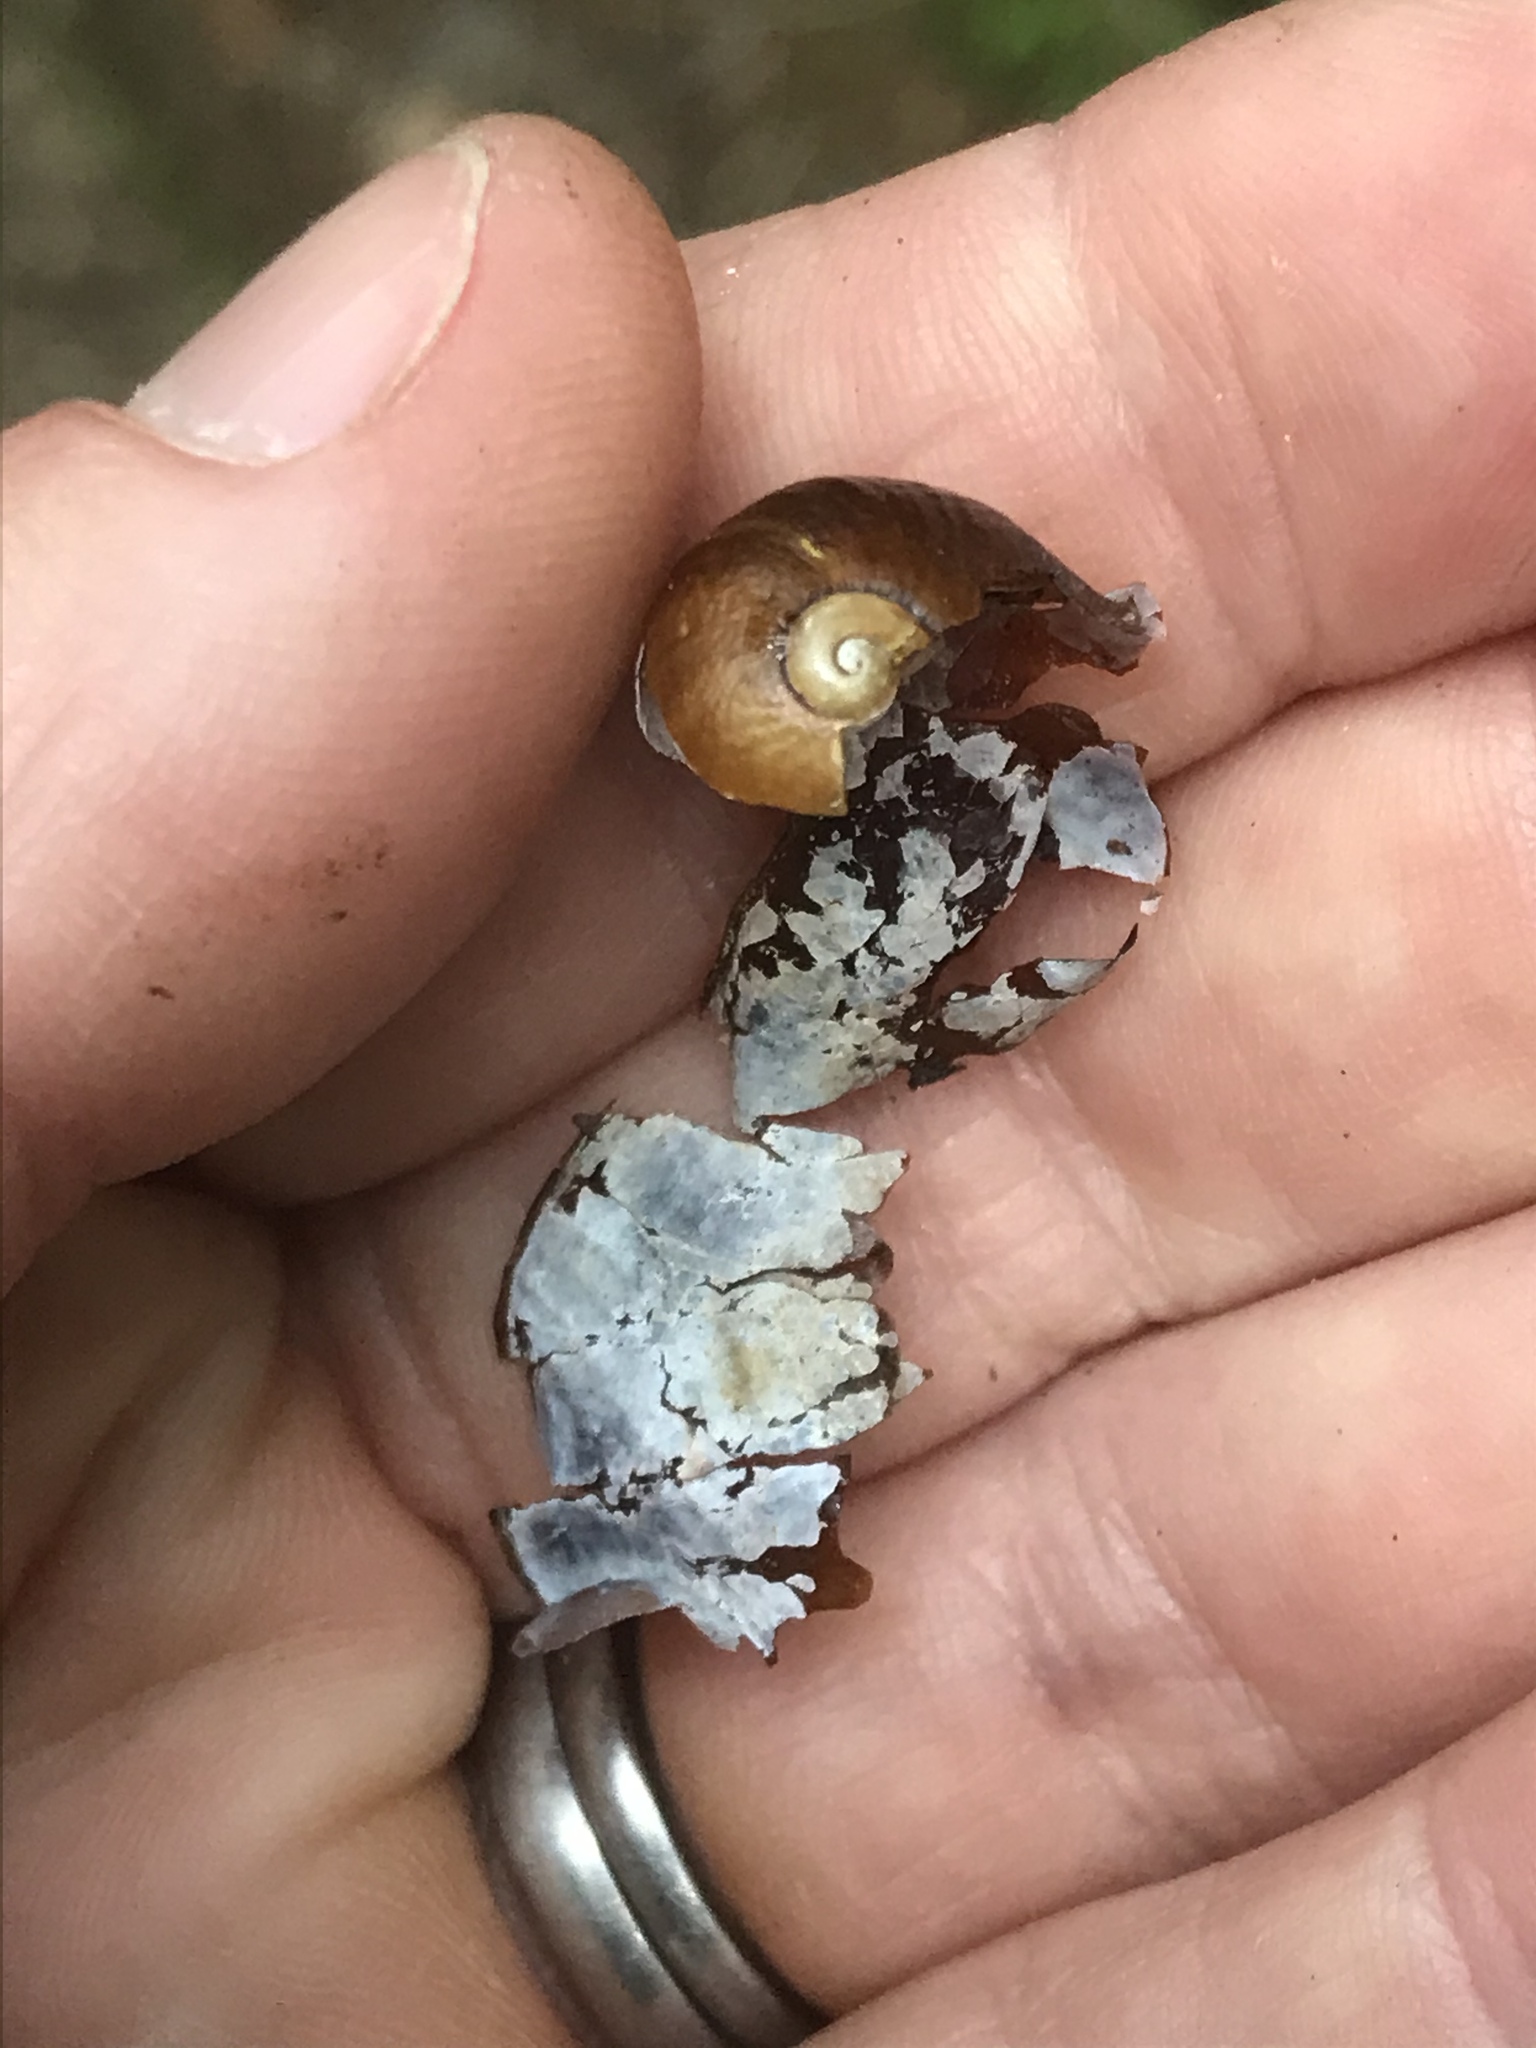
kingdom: Animalia
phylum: Mollusca
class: Gastropoda
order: Stylommatophora
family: Rhytididae
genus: Wainuia
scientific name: Wainuia urnula
